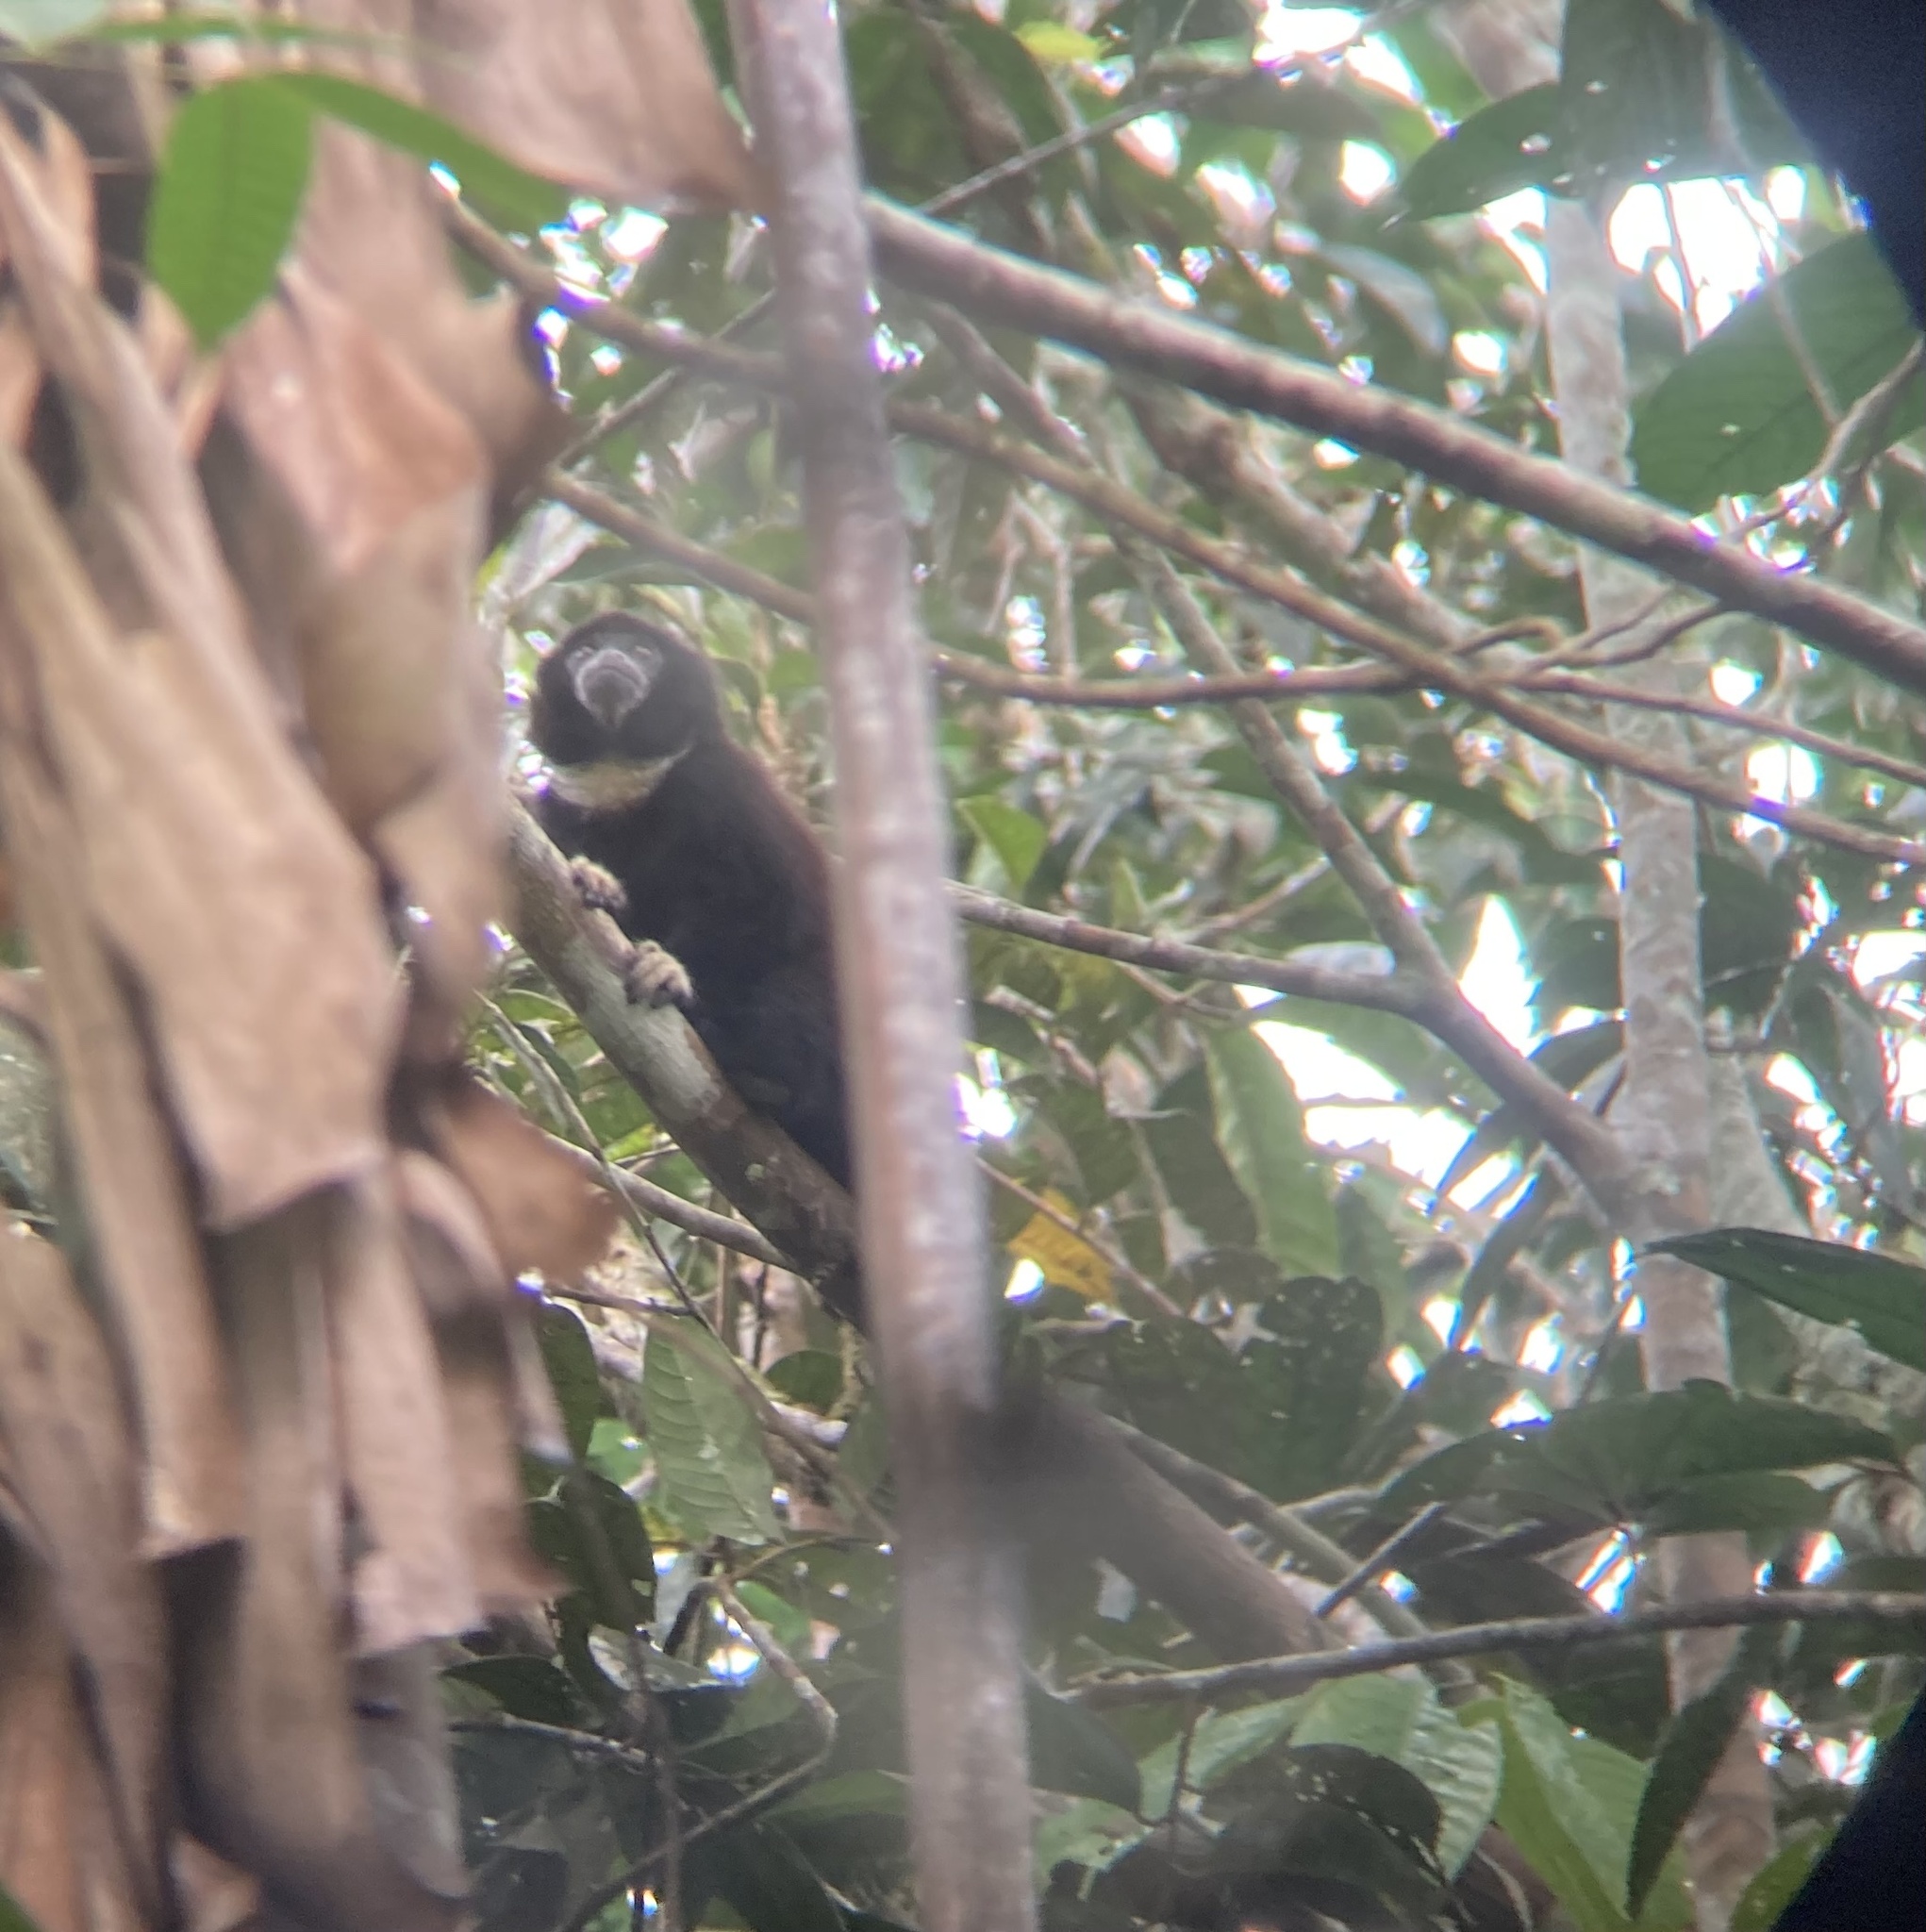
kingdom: Animalia
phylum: Chordata
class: Mammalia
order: Primates
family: Pitheciidae
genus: Cheracebus
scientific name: Cheracebus lucifer
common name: Yellow-handed titi
